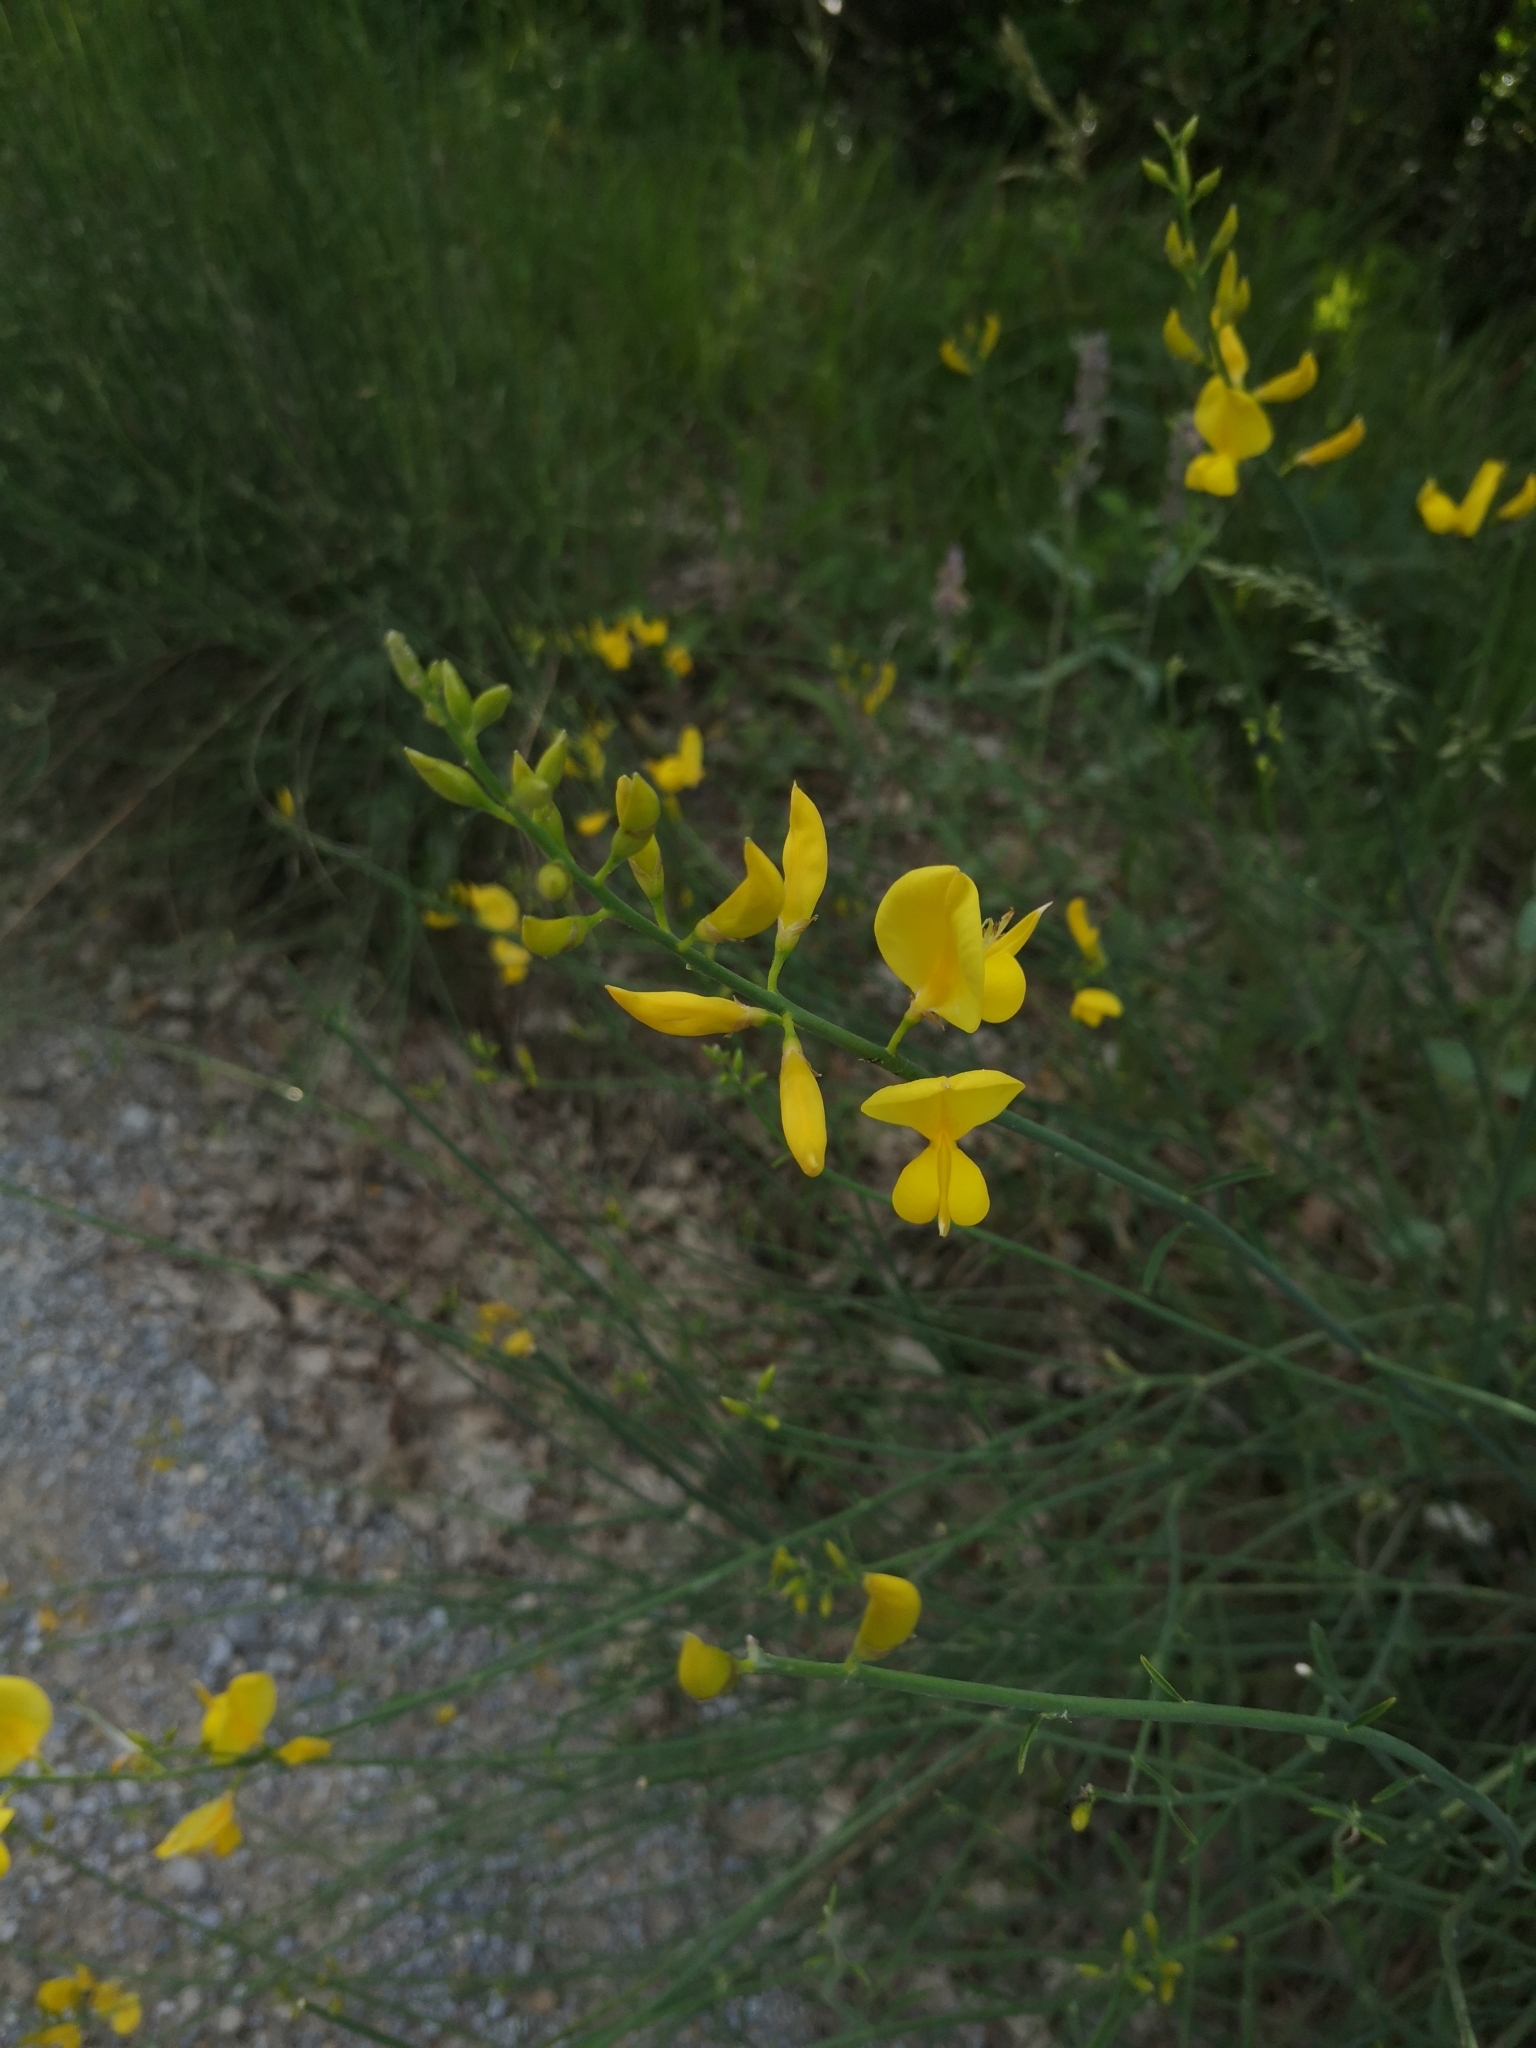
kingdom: Plantae
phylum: Tracheophyta
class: Magnoliopsida
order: Fabales
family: Fabaceae
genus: Spartium
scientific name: Spartium junceum
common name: Spanish broom
